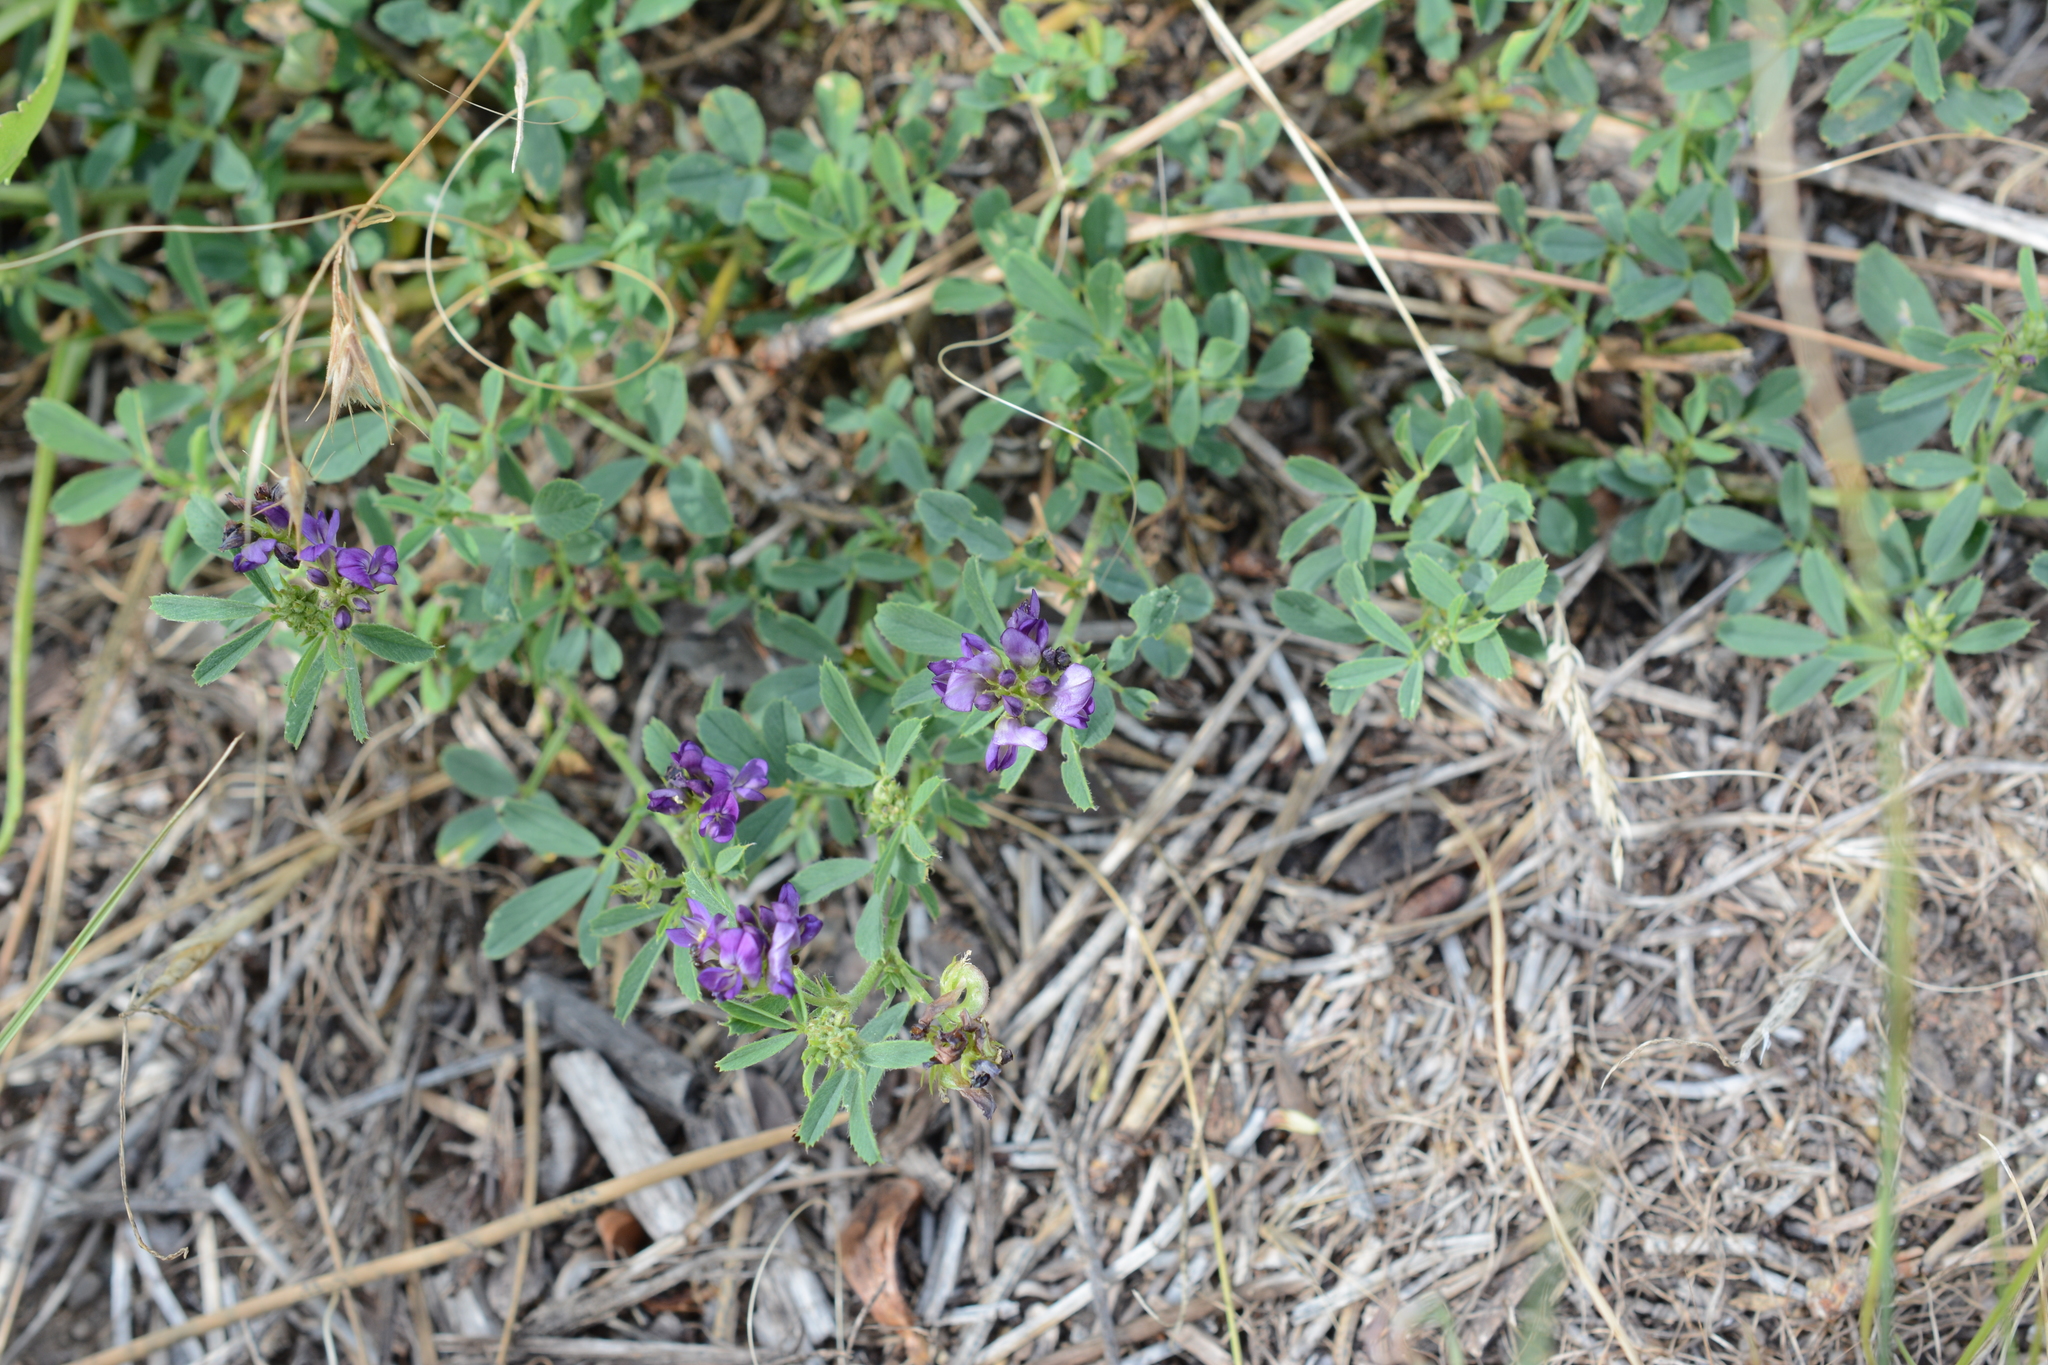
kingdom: Plantae
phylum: Tracheophyta
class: Magnoliopsida
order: Fabales
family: Fabaceae
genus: Medicago
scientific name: Medicago sativa
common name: Alfalfa
